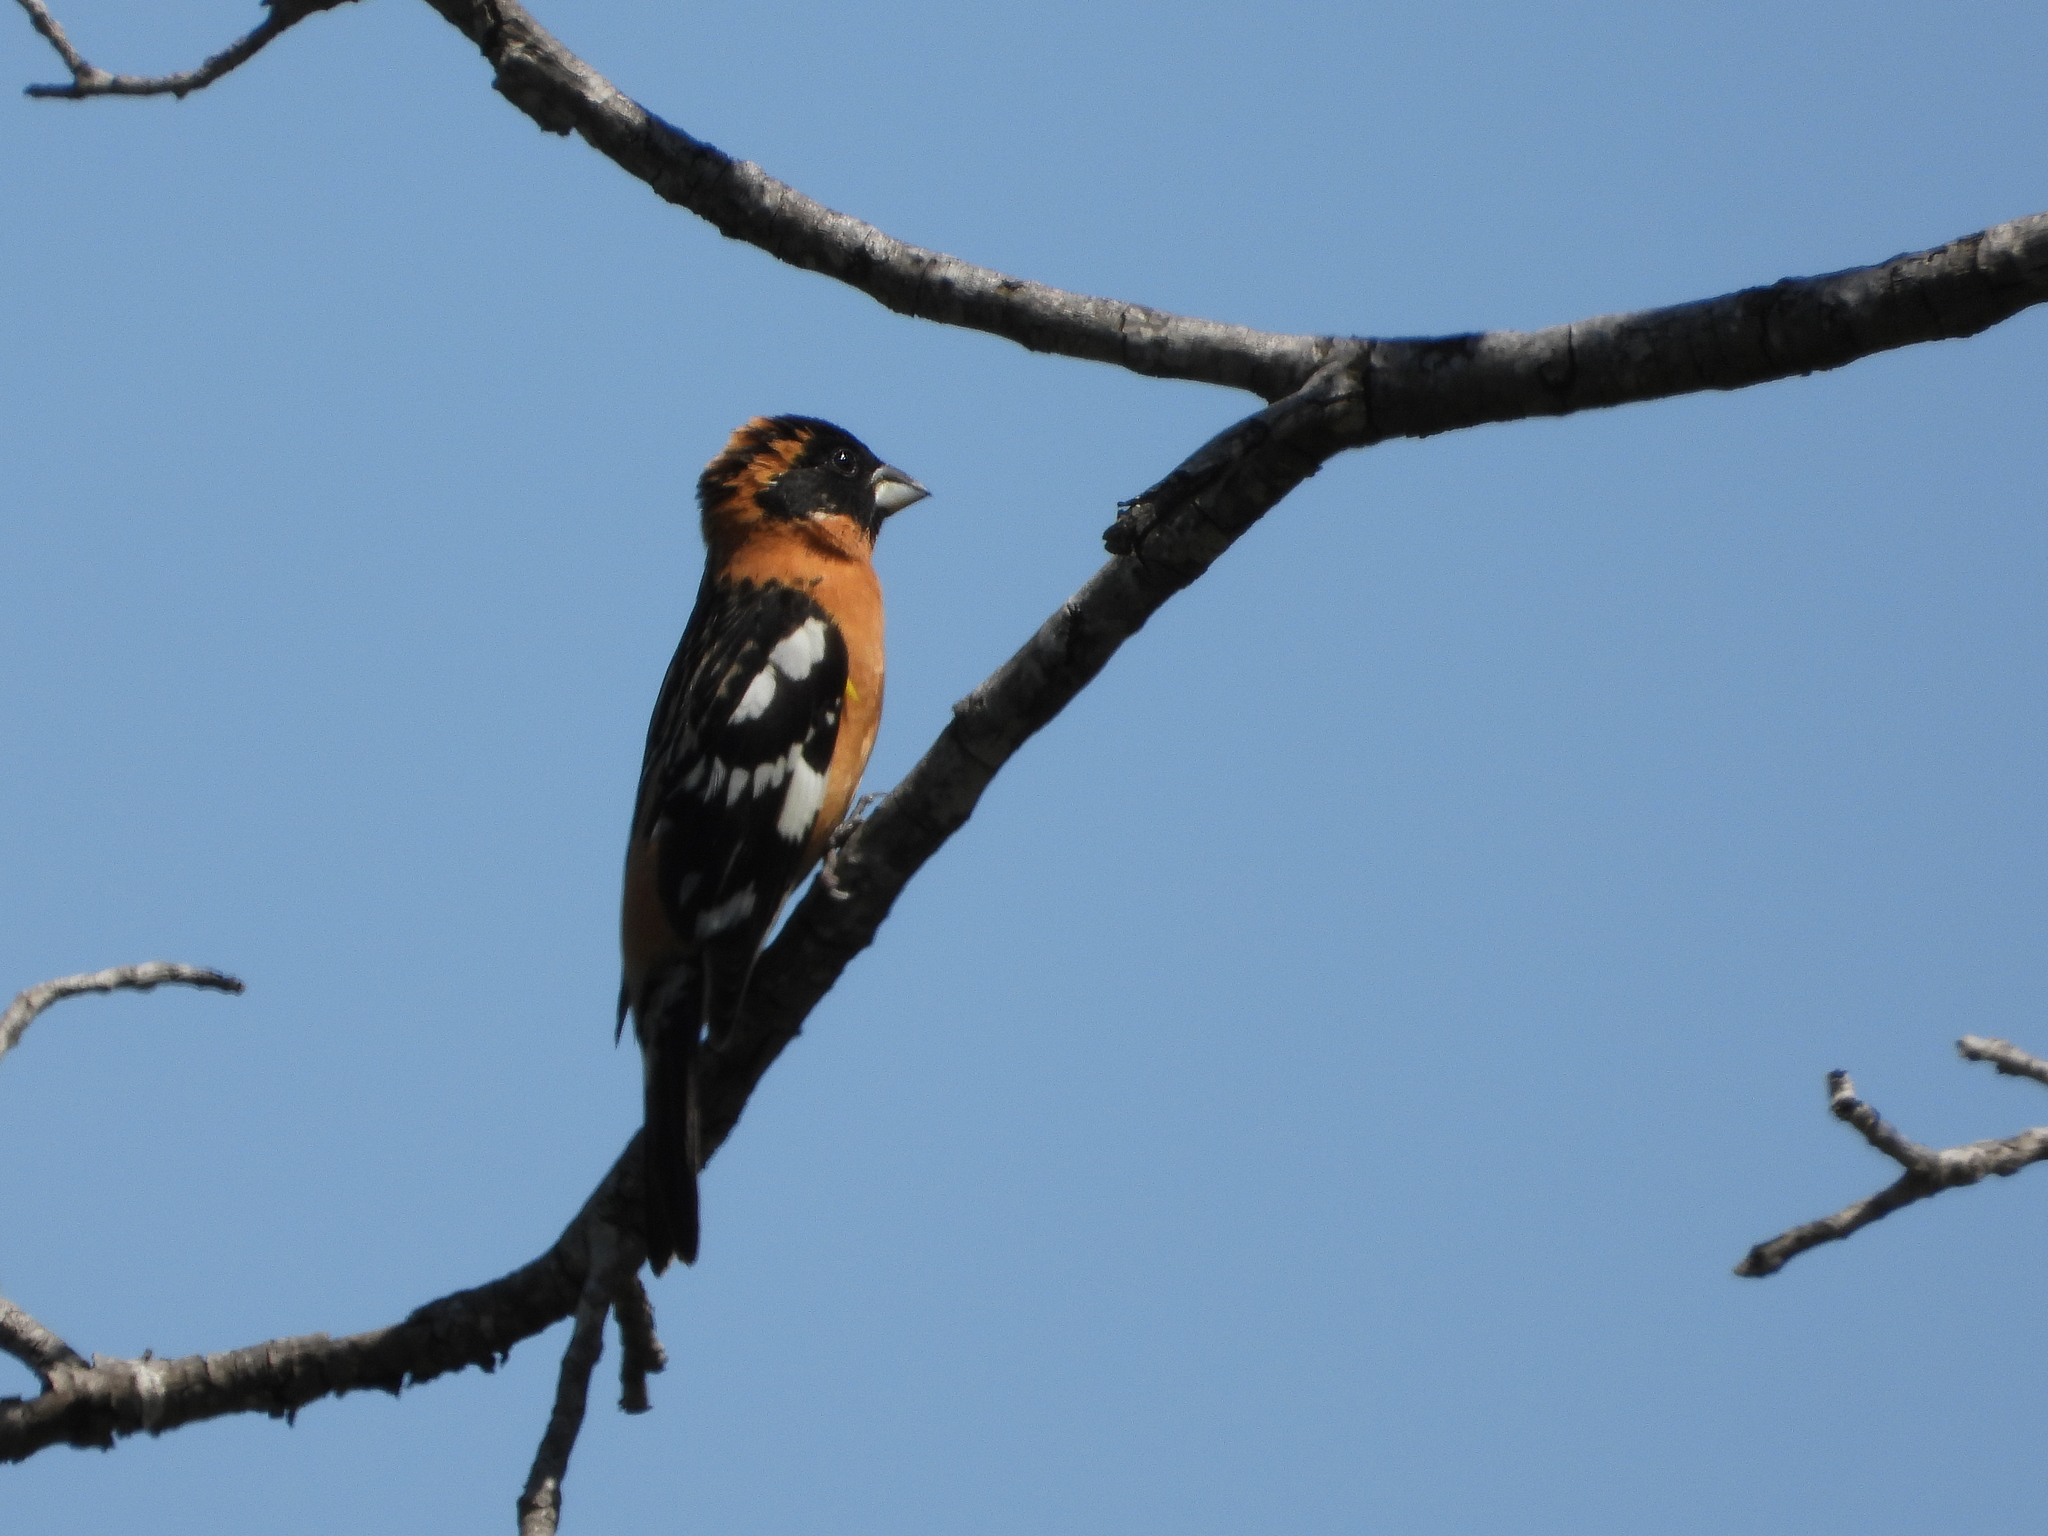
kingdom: Animalia
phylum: Chordata
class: Aves
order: Passeriformes
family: Cardinalidae
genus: Pheucticus
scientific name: Pheucticus melanocephalus
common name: Black-headed grosbeak
